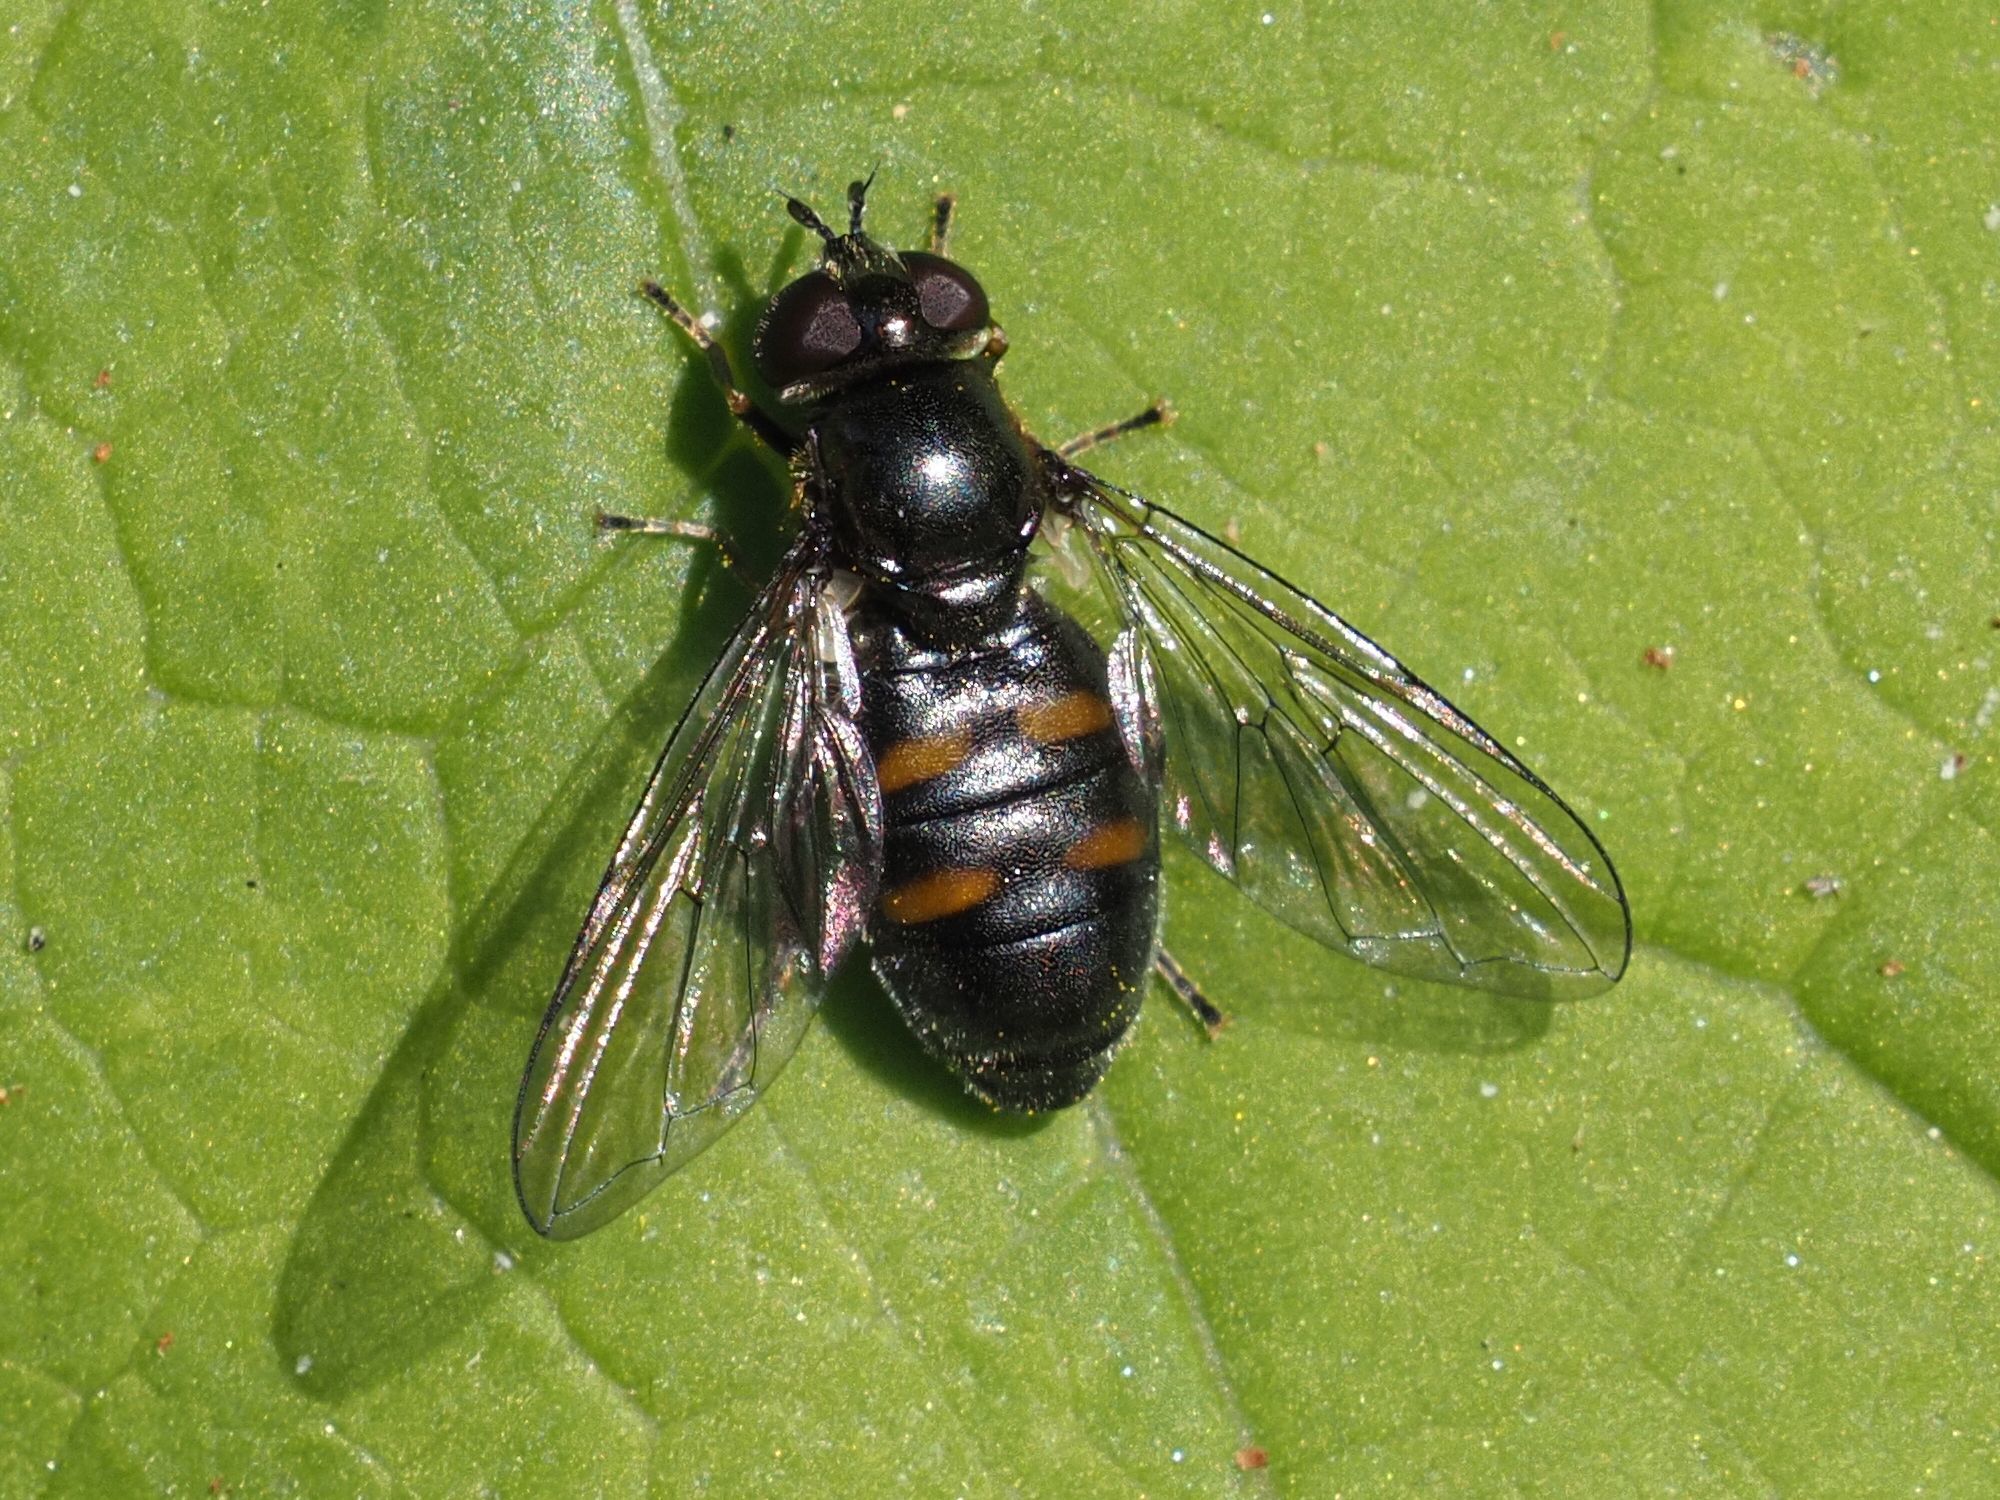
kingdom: Animalia
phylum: Arthropoda
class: Insecta
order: Diptera
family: Syrphidae
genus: Pipiza
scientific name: Pipiza quadrimaculata
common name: Four-spotted pipiza
